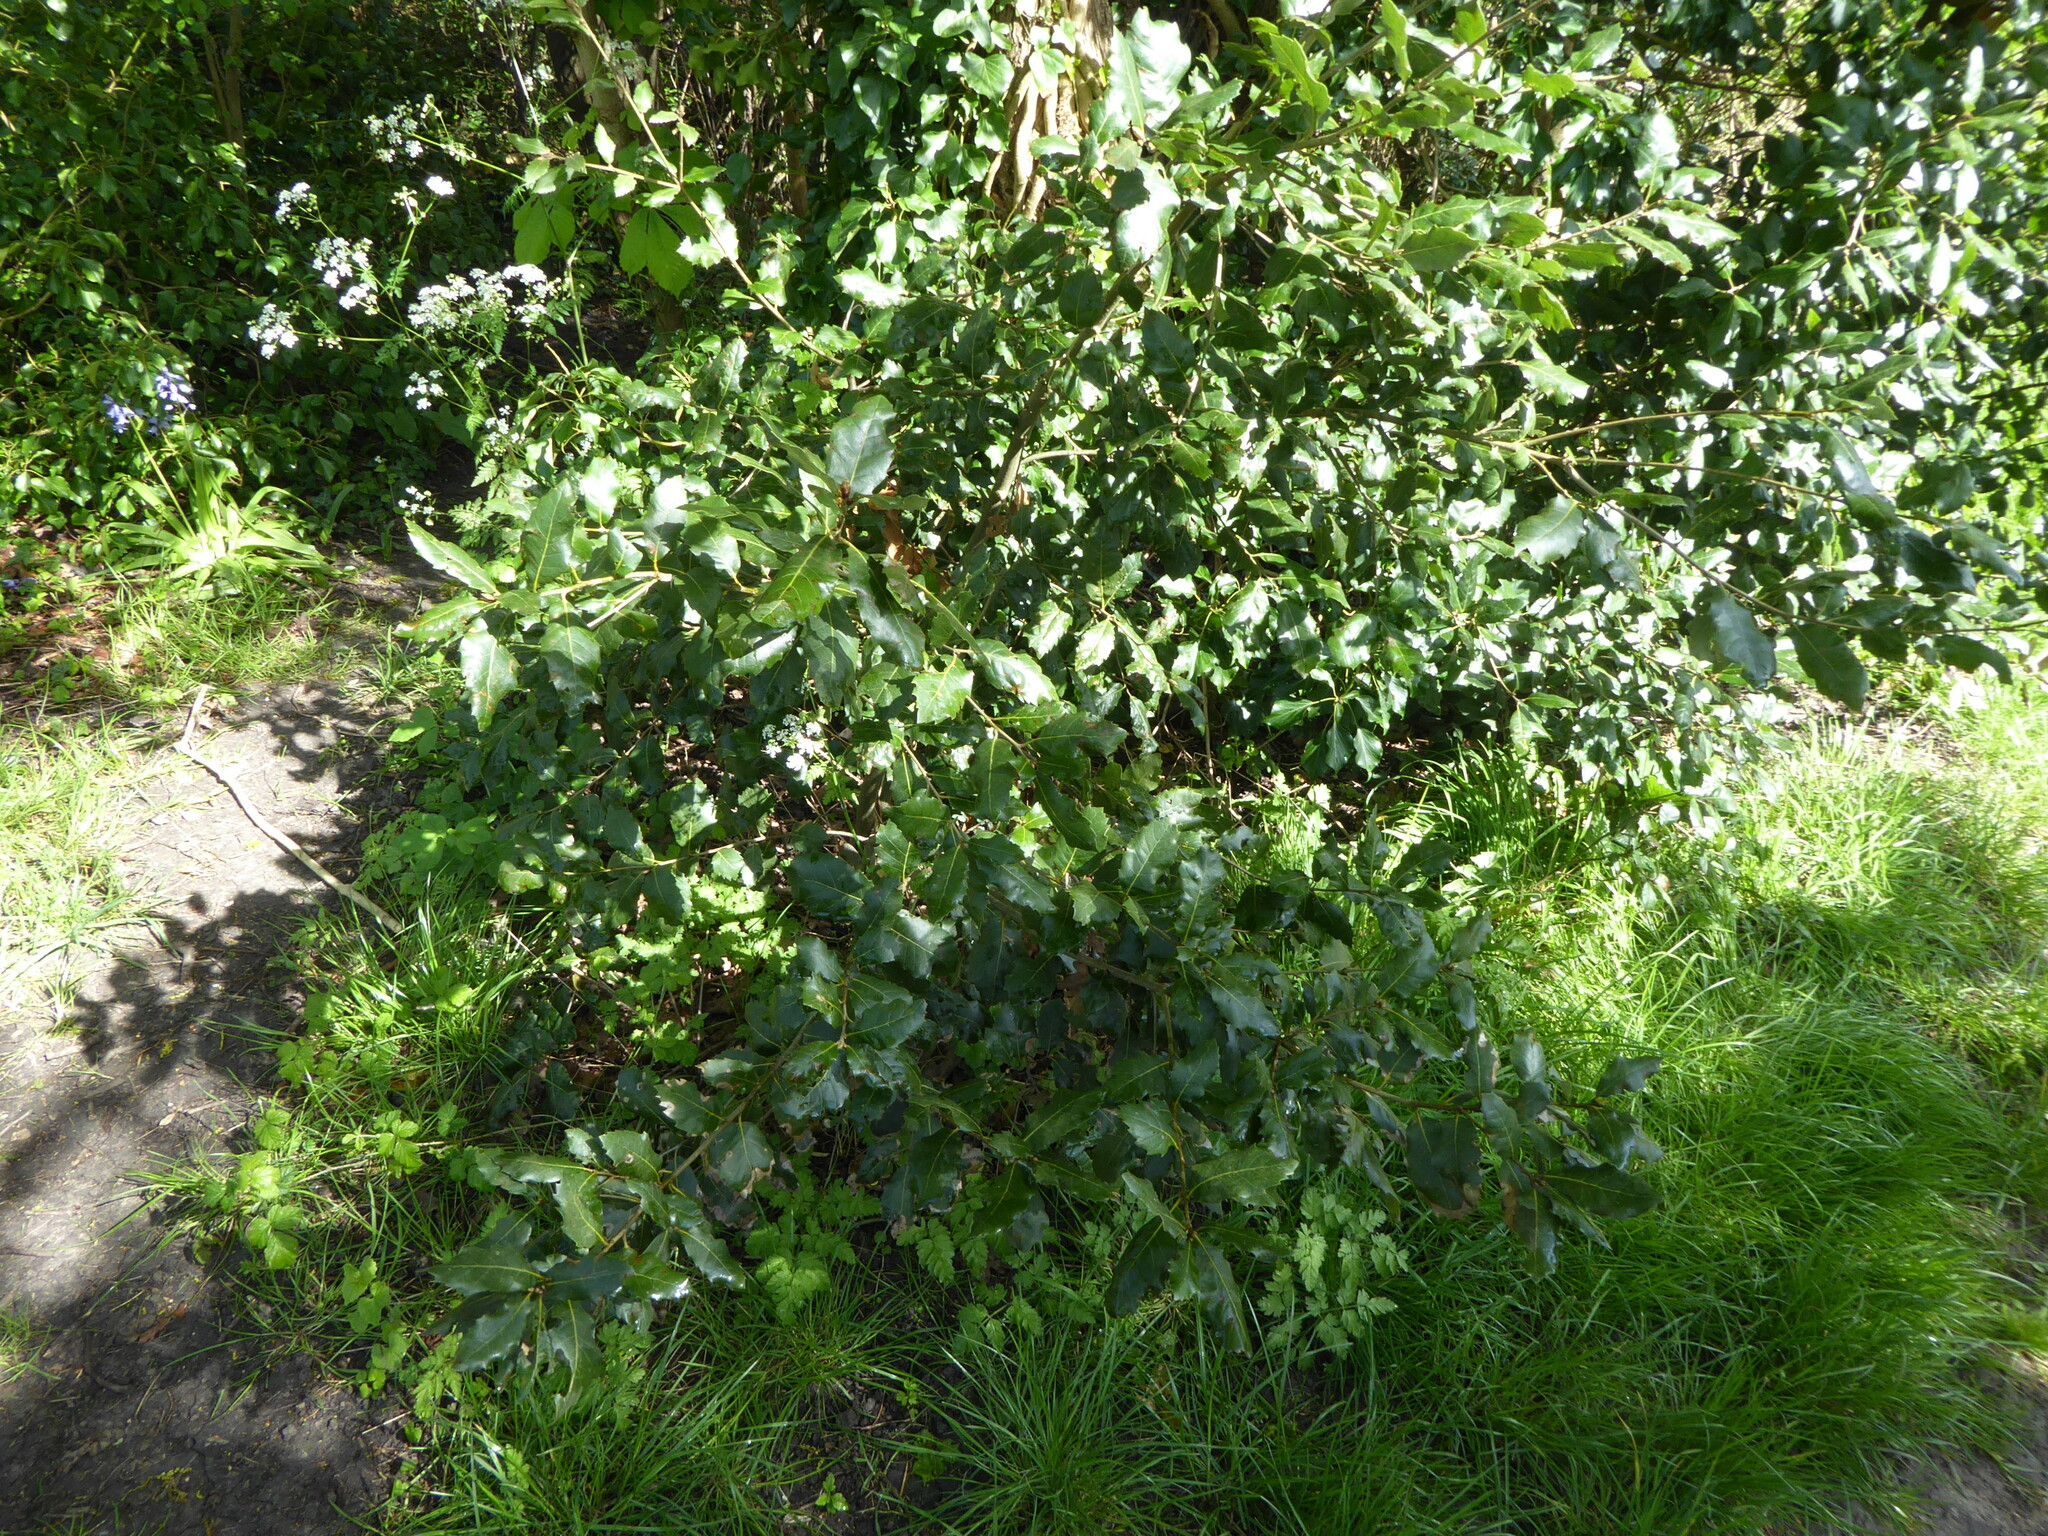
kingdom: Plantae
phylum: Tracheophyta
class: Magnoliopsida
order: Fagales
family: Fagaceae
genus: Quercus
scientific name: Quercus ilex
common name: Evergreen oak
